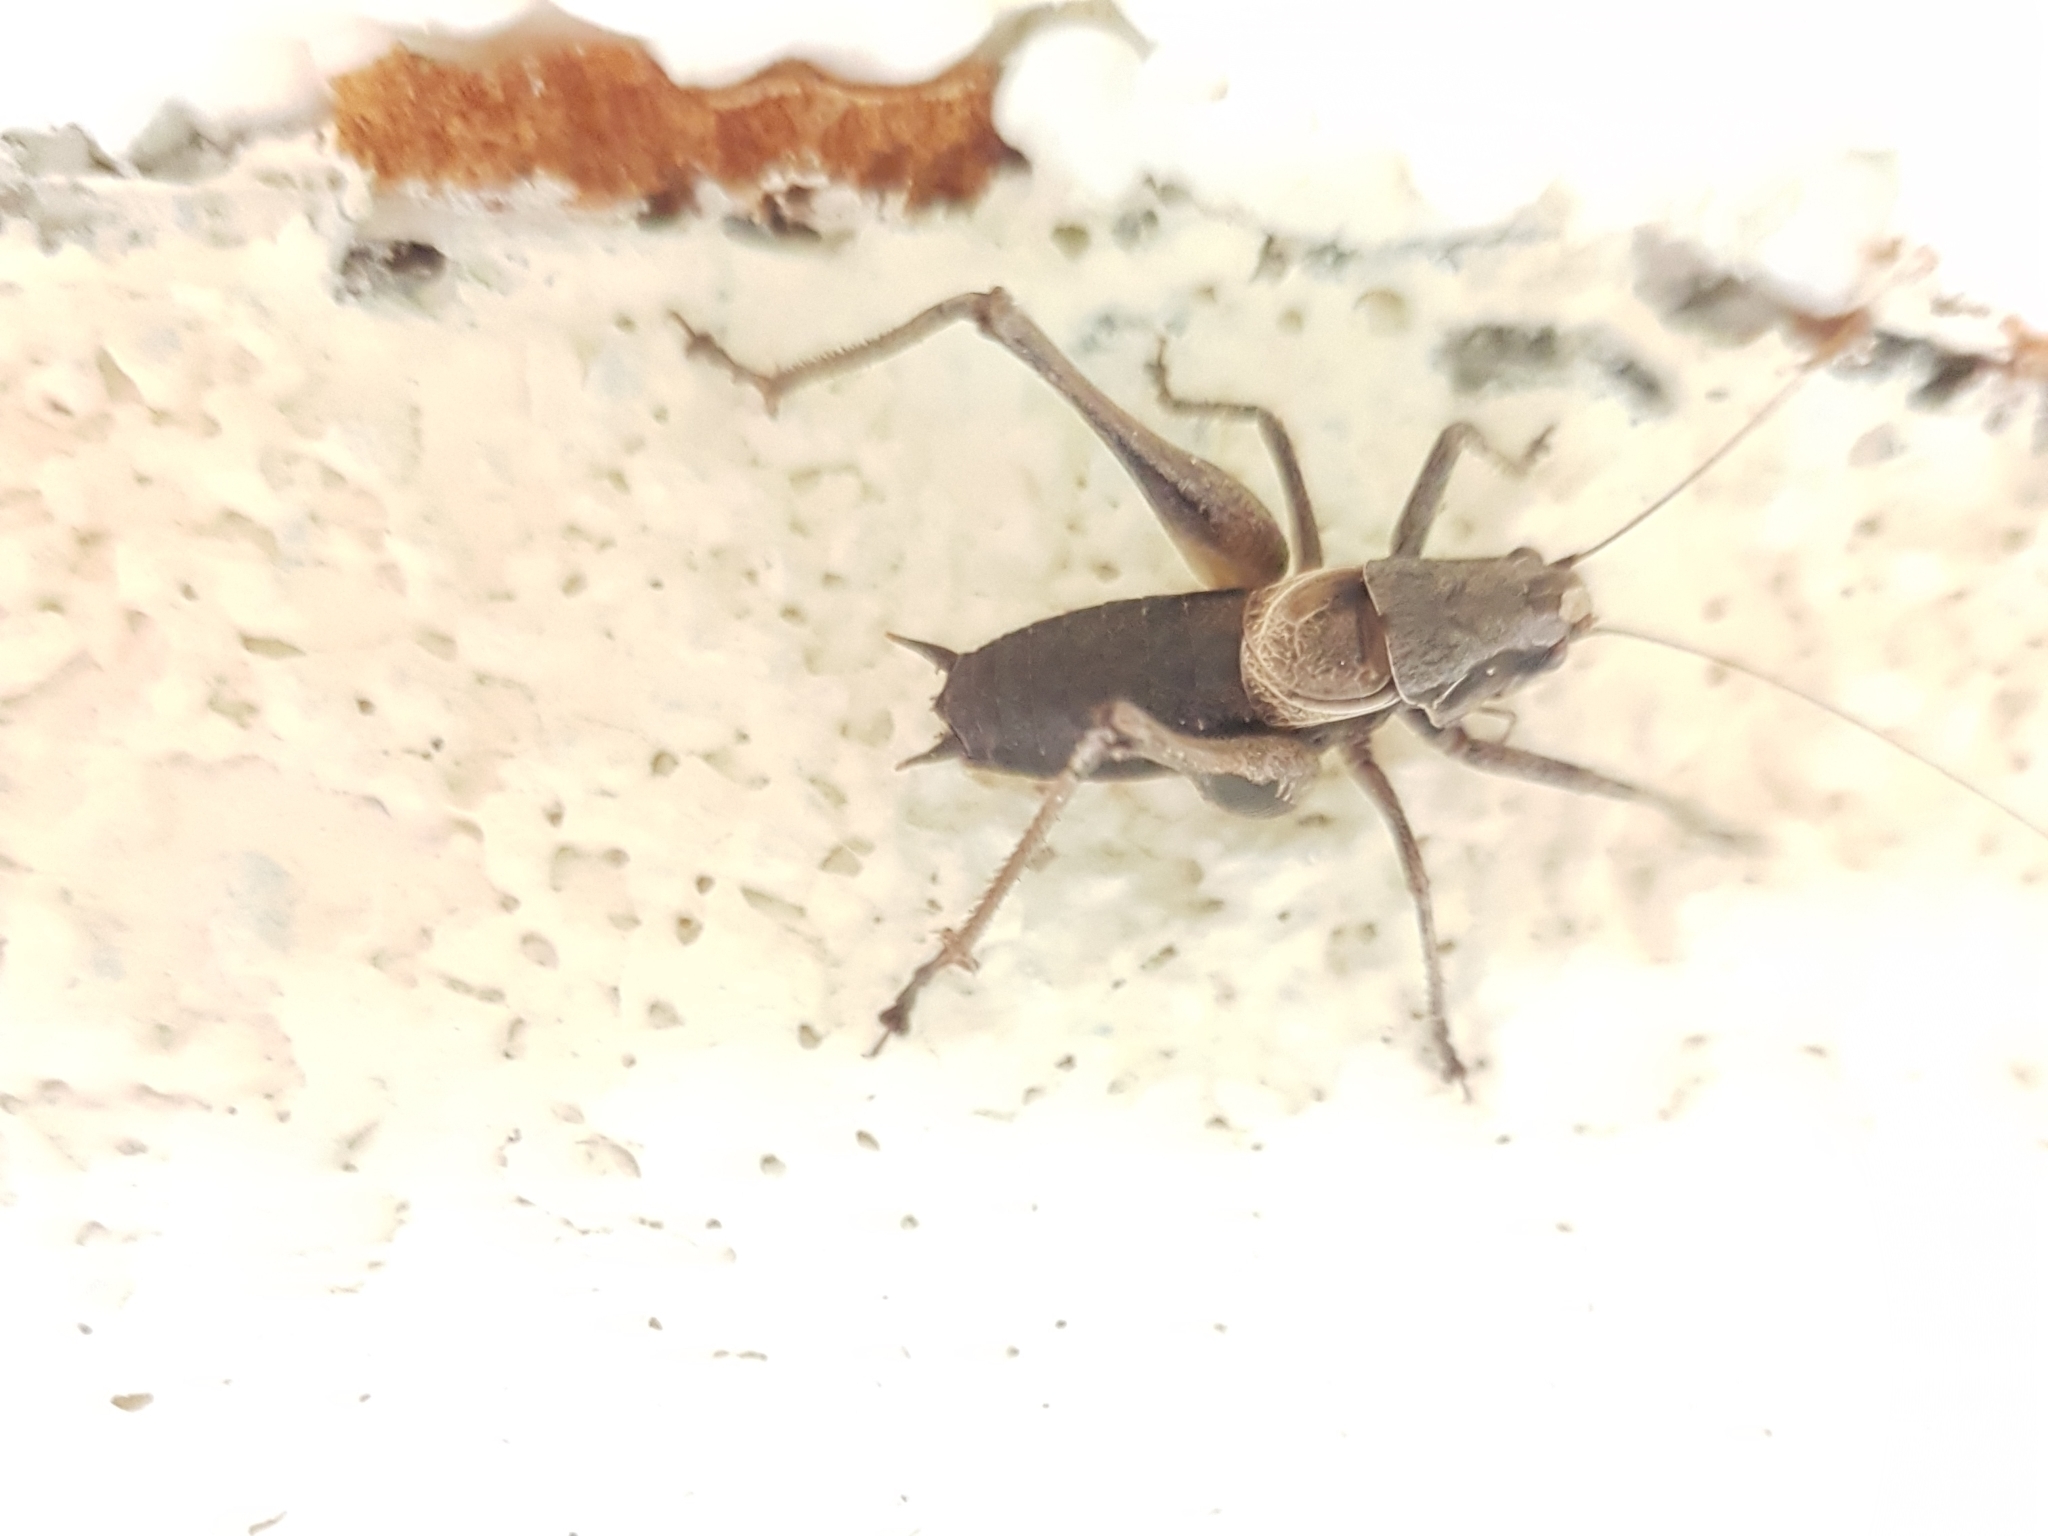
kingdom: Animalia
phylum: Arthropoda
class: Insecta
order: Orthoptera
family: Tettigoniidae
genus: Pholidoptera
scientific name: Pholidoptera griseoaptera
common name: Dark bush-cricket
